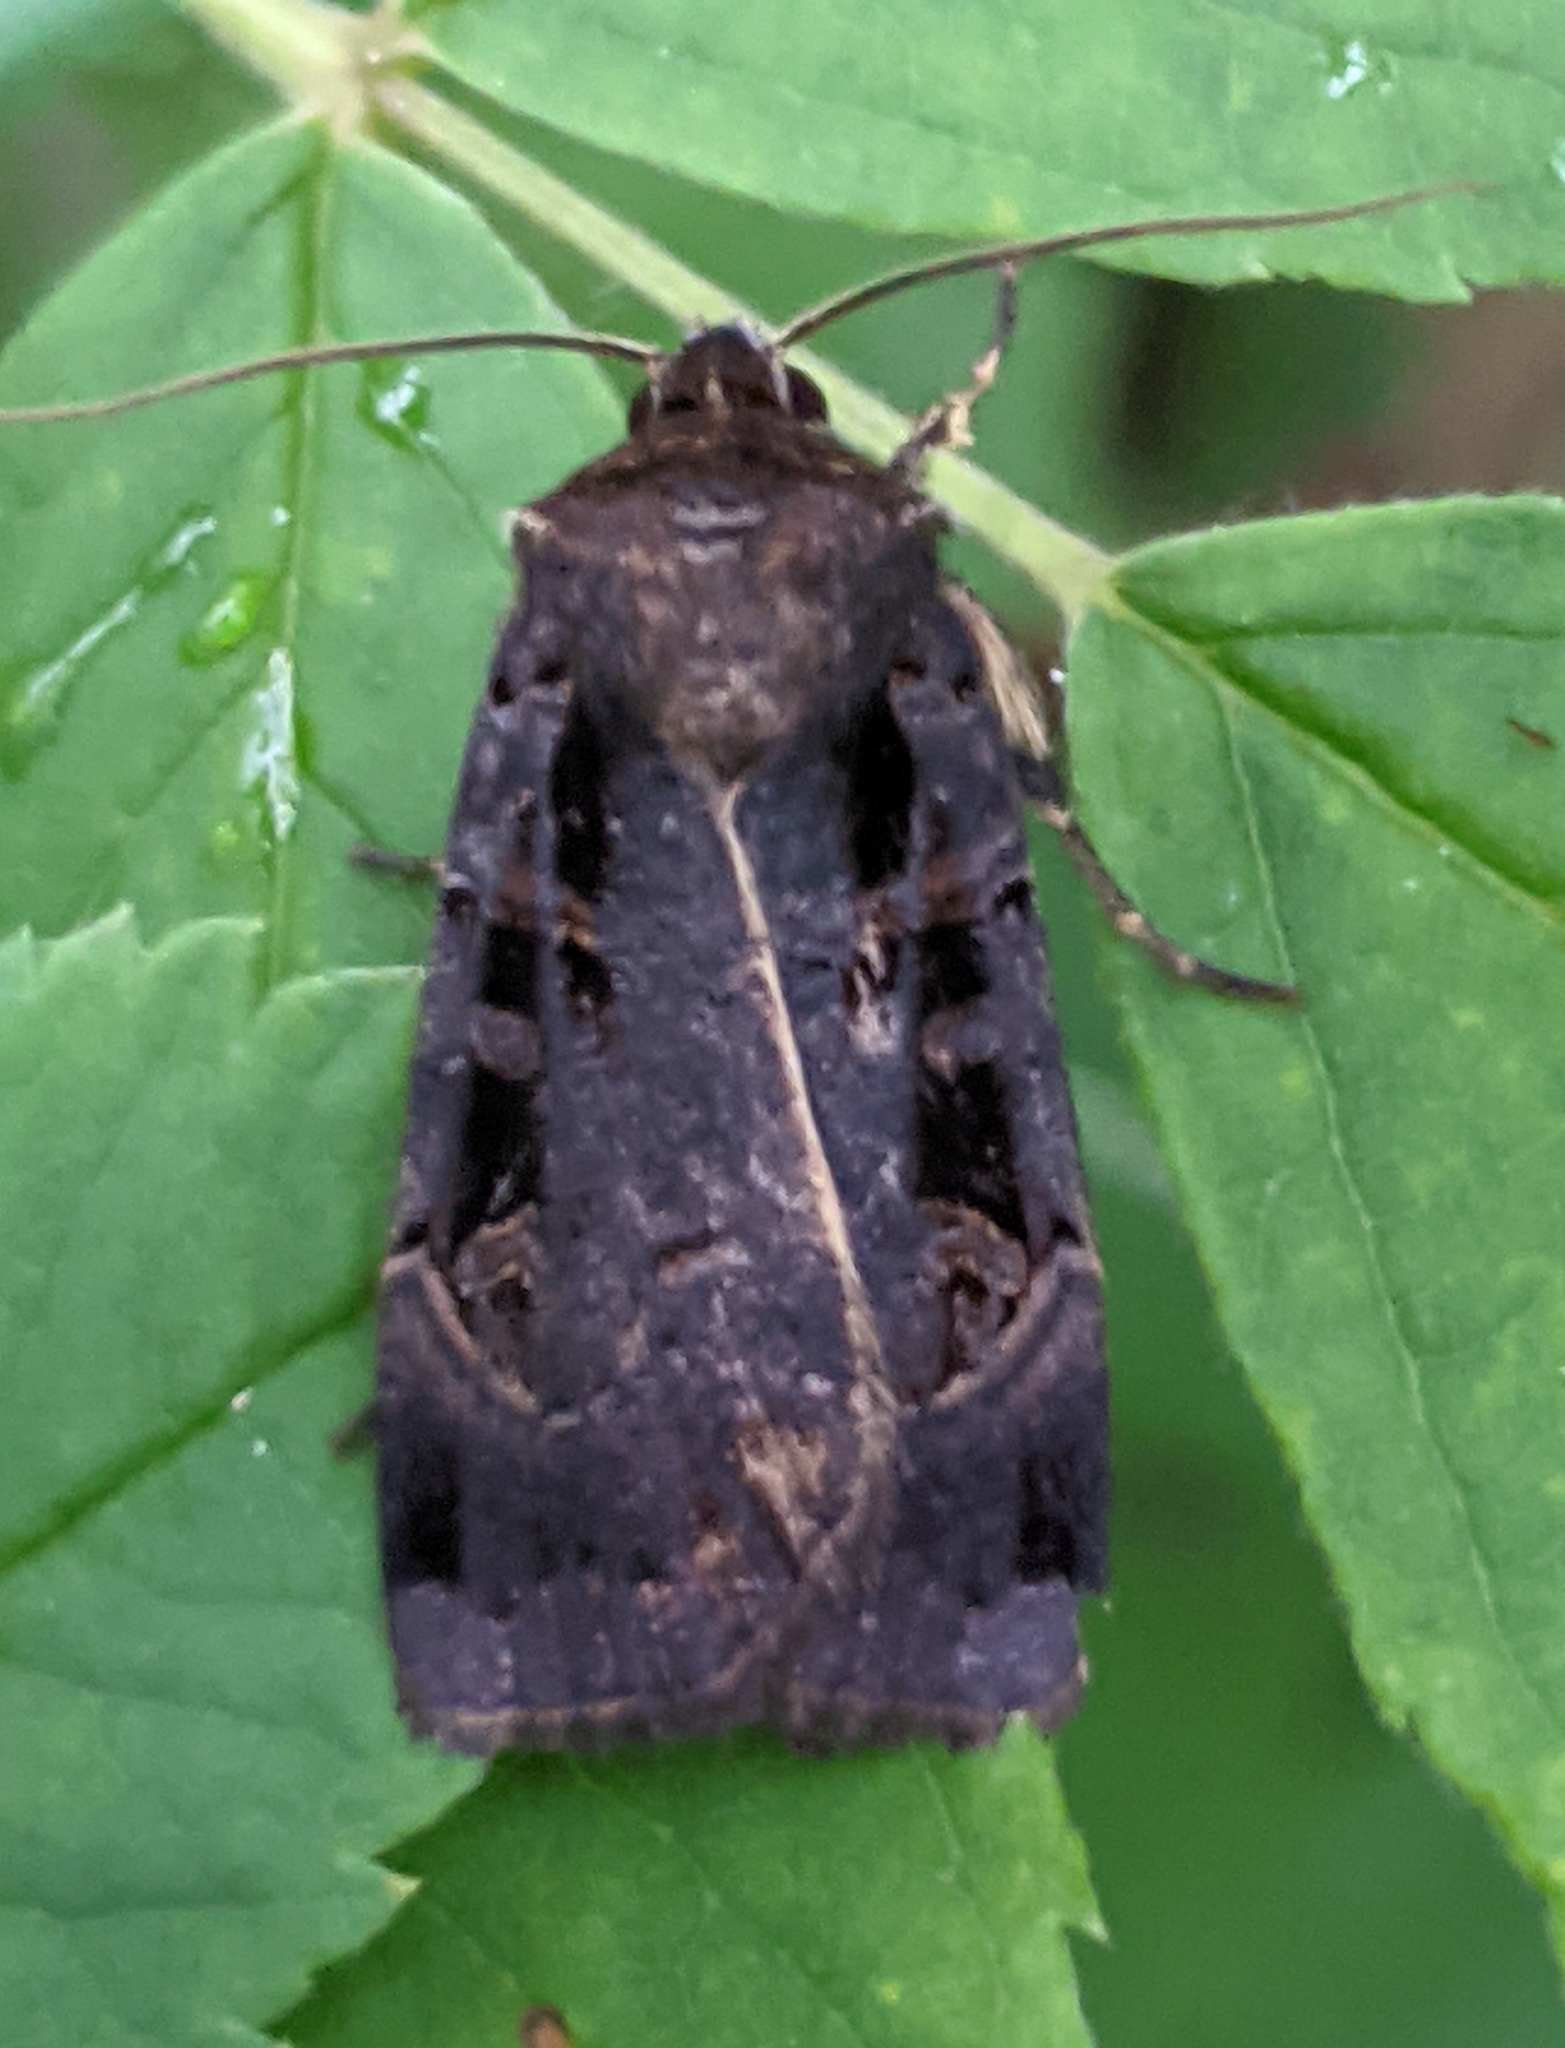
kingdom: Animalia
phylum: Arthropoda
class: Insecta
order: Lepidoptera
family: Noctuidae
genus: Pseudohermonassa
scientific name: Pseudohermonassa tenuicula
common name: Morrison's sooty dart
